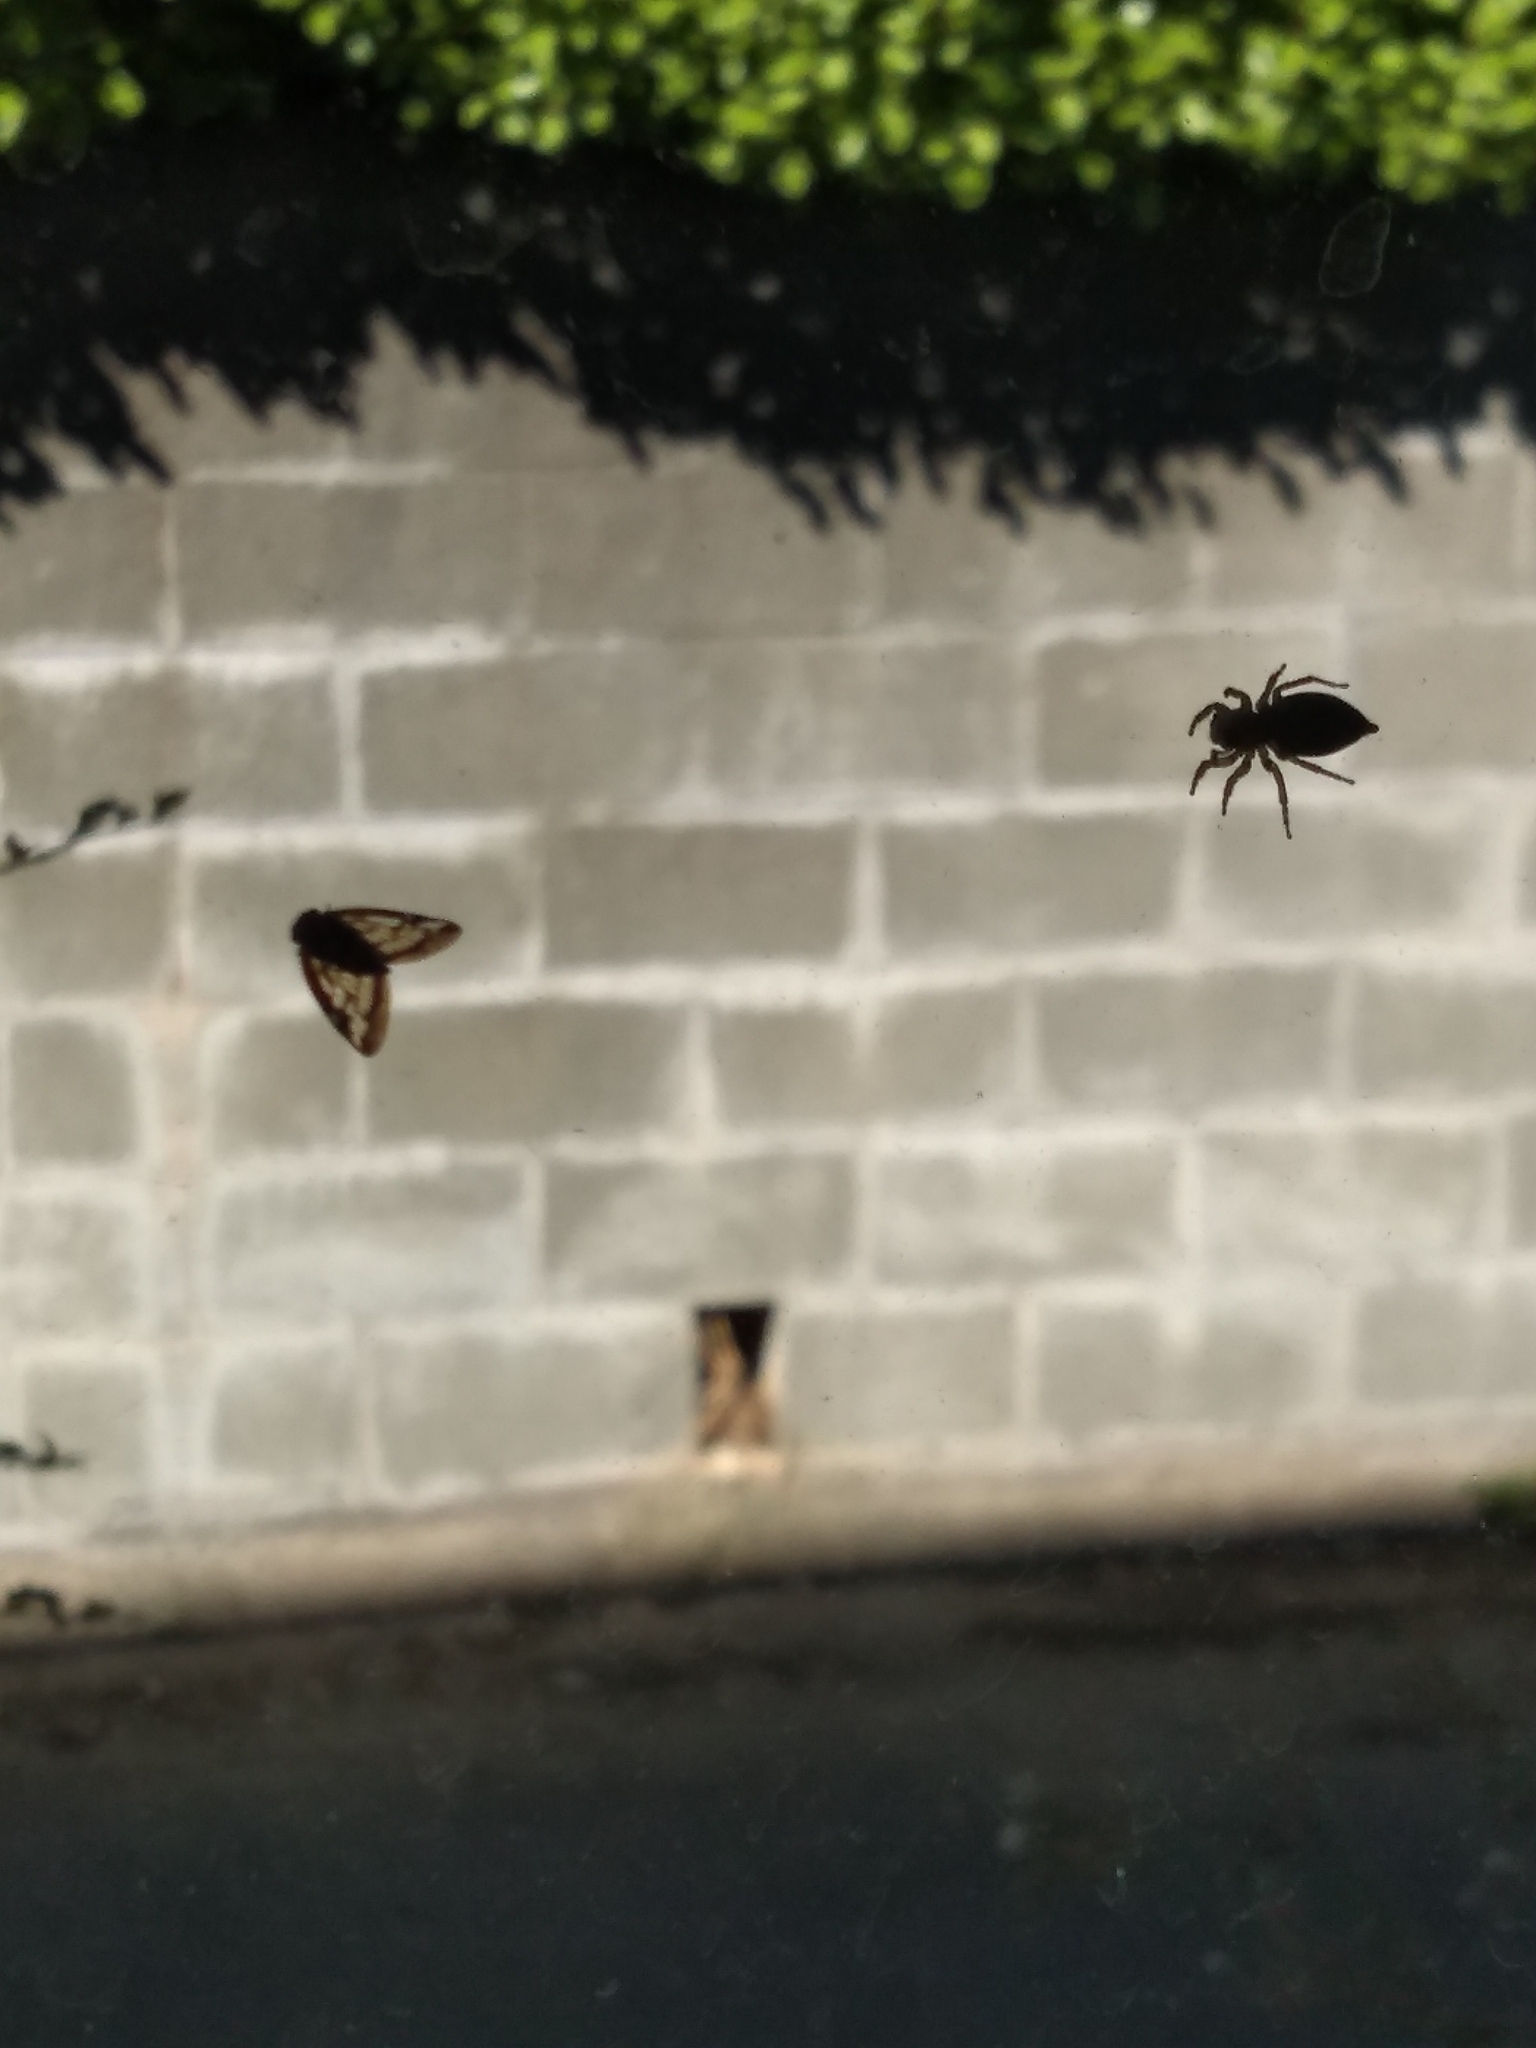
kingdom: Animalia
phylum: Arthropoda
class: Insecta
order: Hemiptera
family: Ricaniidae
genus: Scolypopa
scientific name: Scolypopa australis
